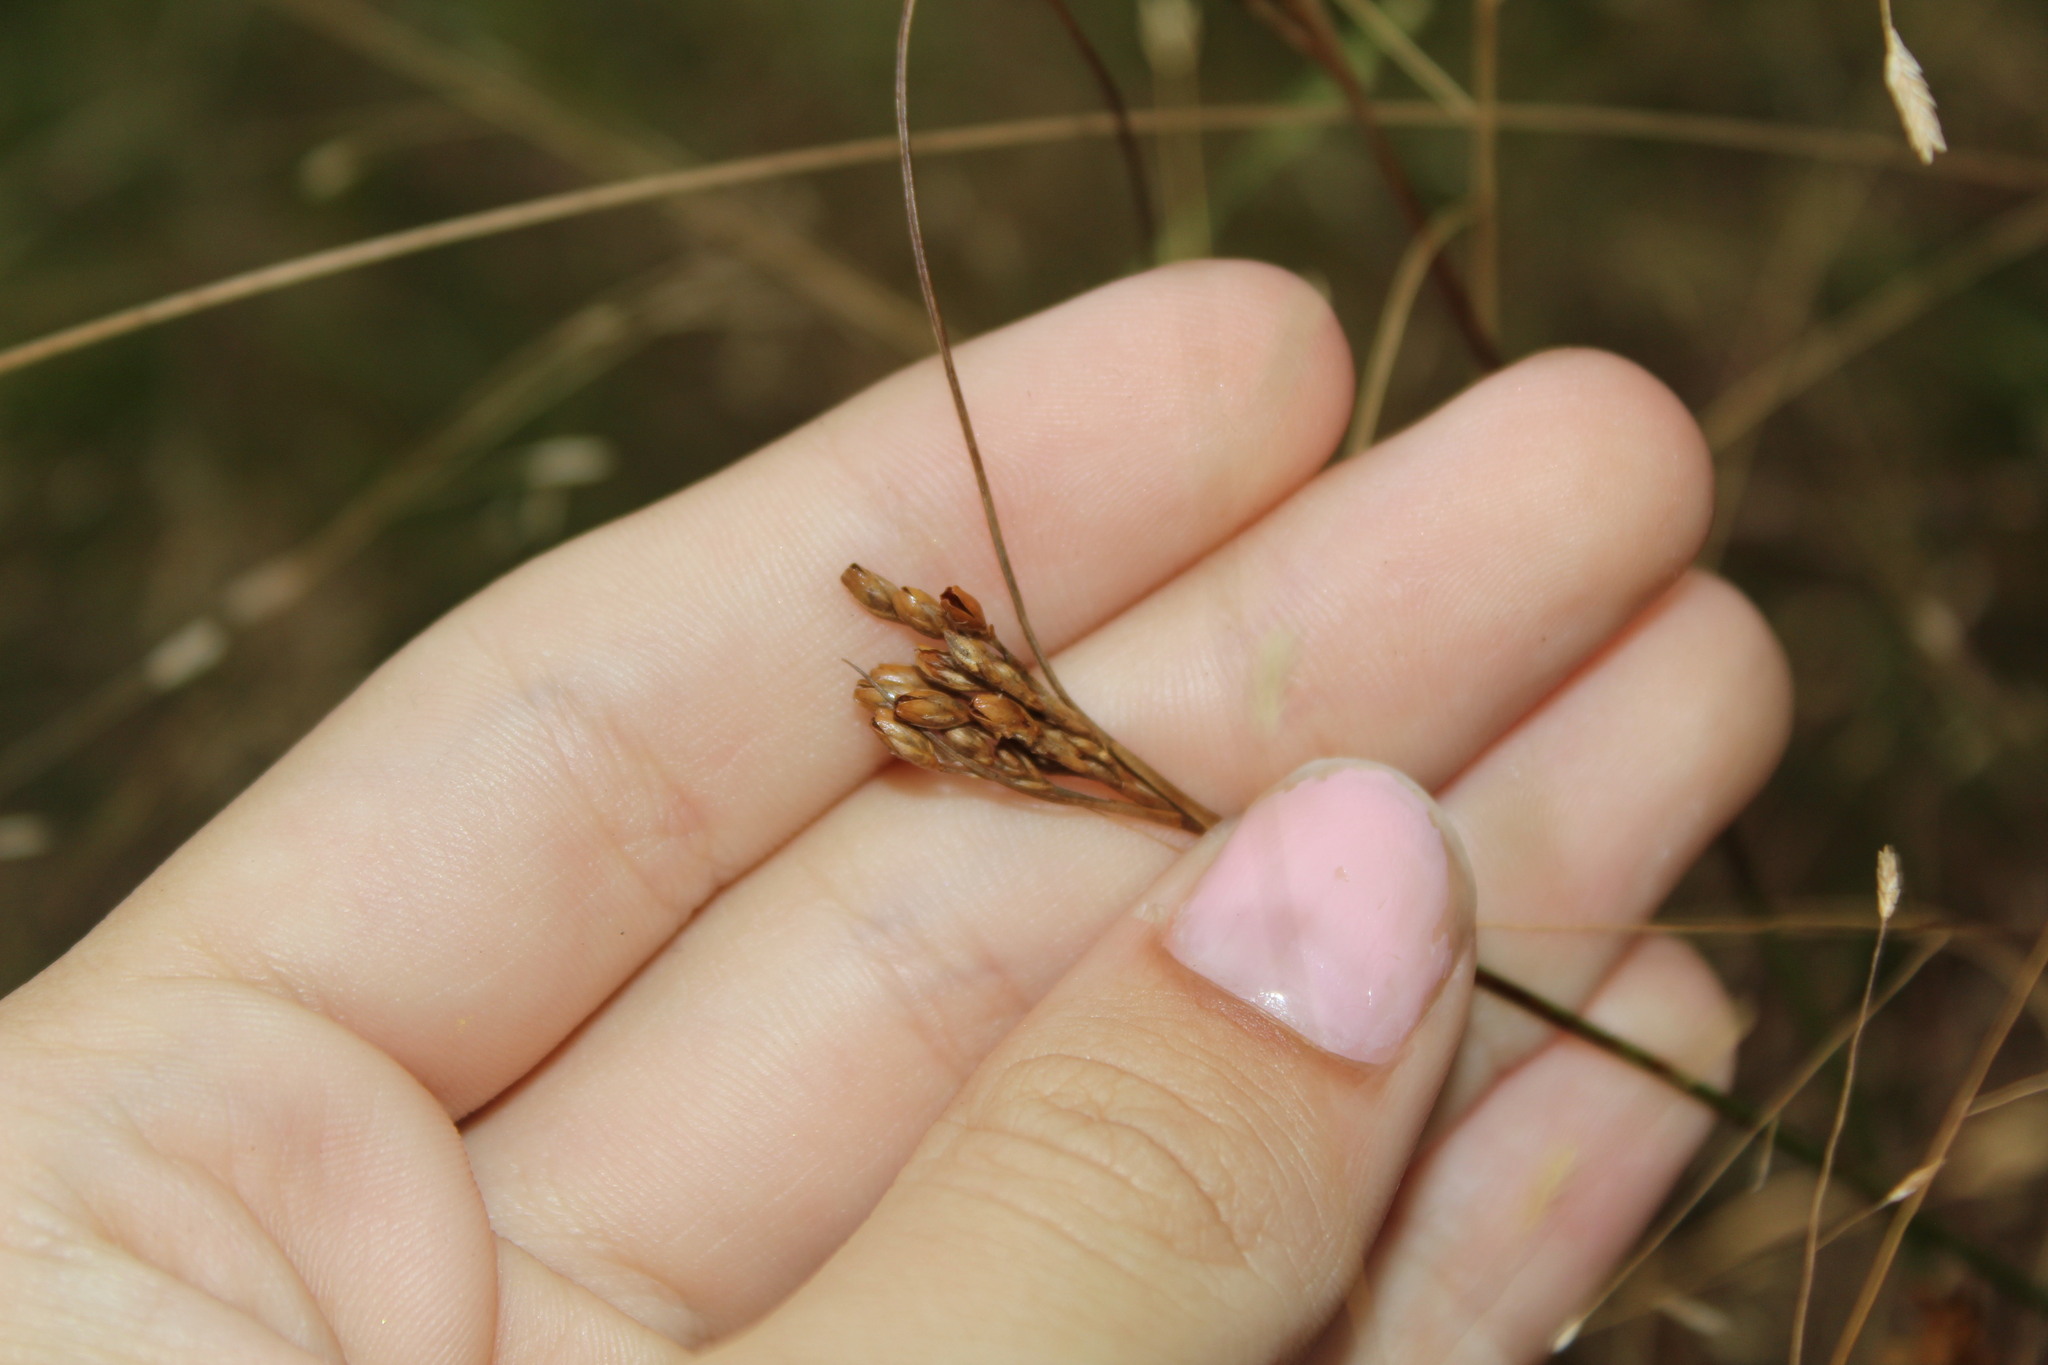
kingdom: Plantae
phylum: Tracheophyta
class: Liliopsida
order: Poales
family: Juncaceae
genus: Juncus
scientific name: Juncus greenei
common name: Greene's rush
